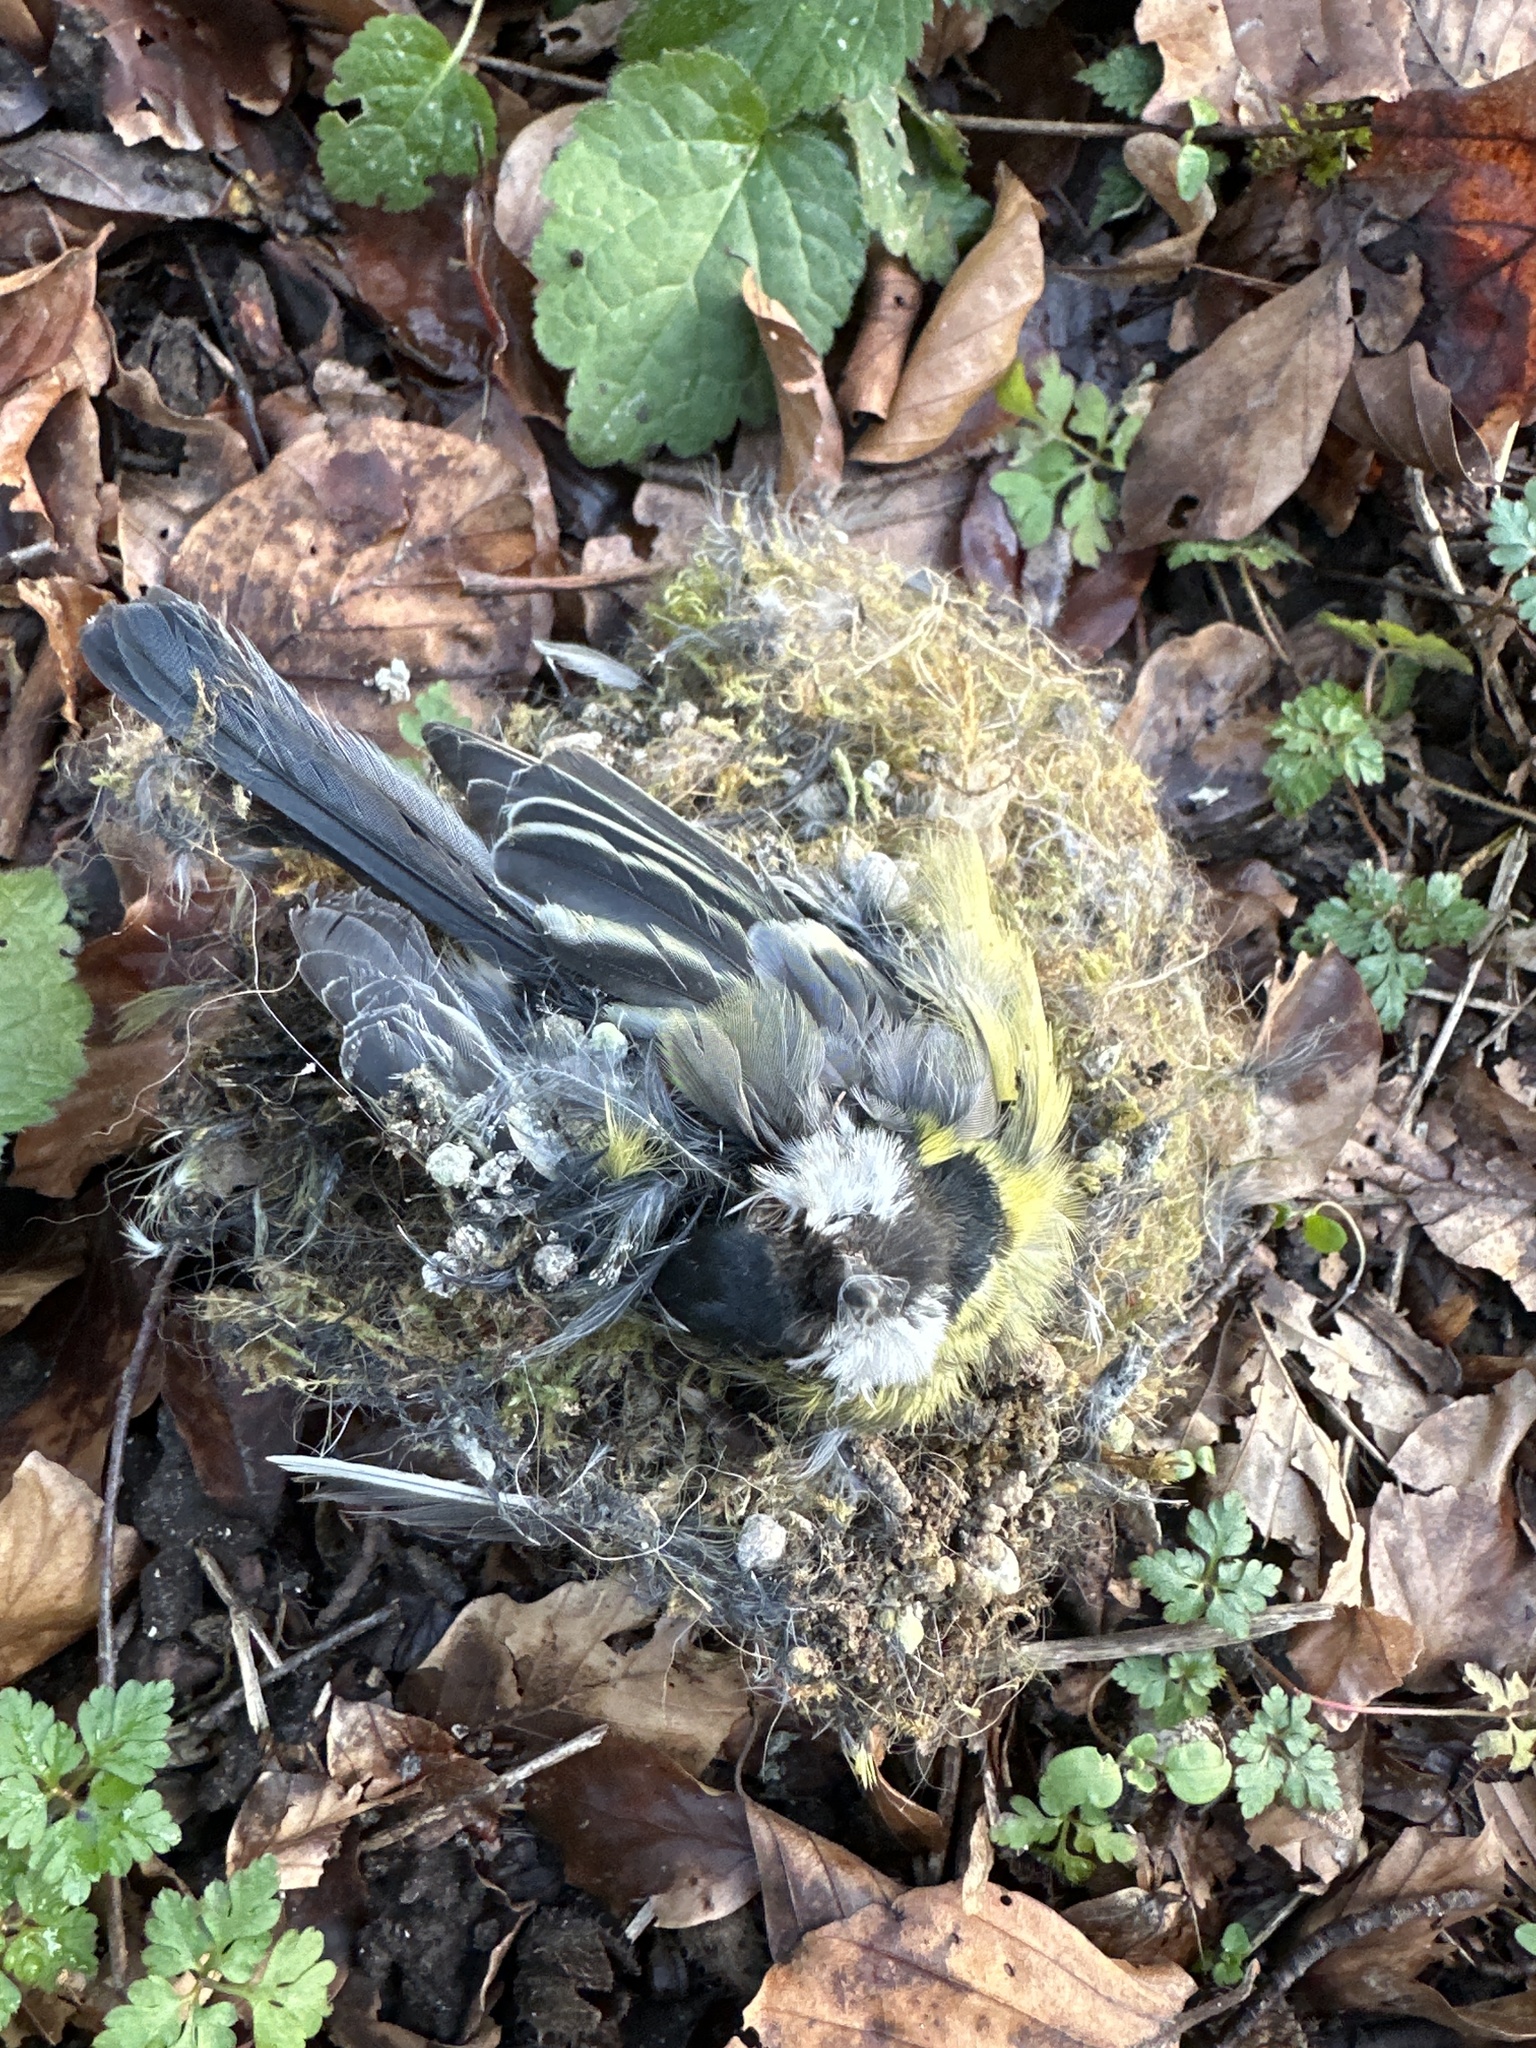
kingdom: Animalia
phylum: Chordata
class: Aves
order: Passeriformes
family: Paridae
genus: Parus
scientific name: Parus major
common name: Great tit
